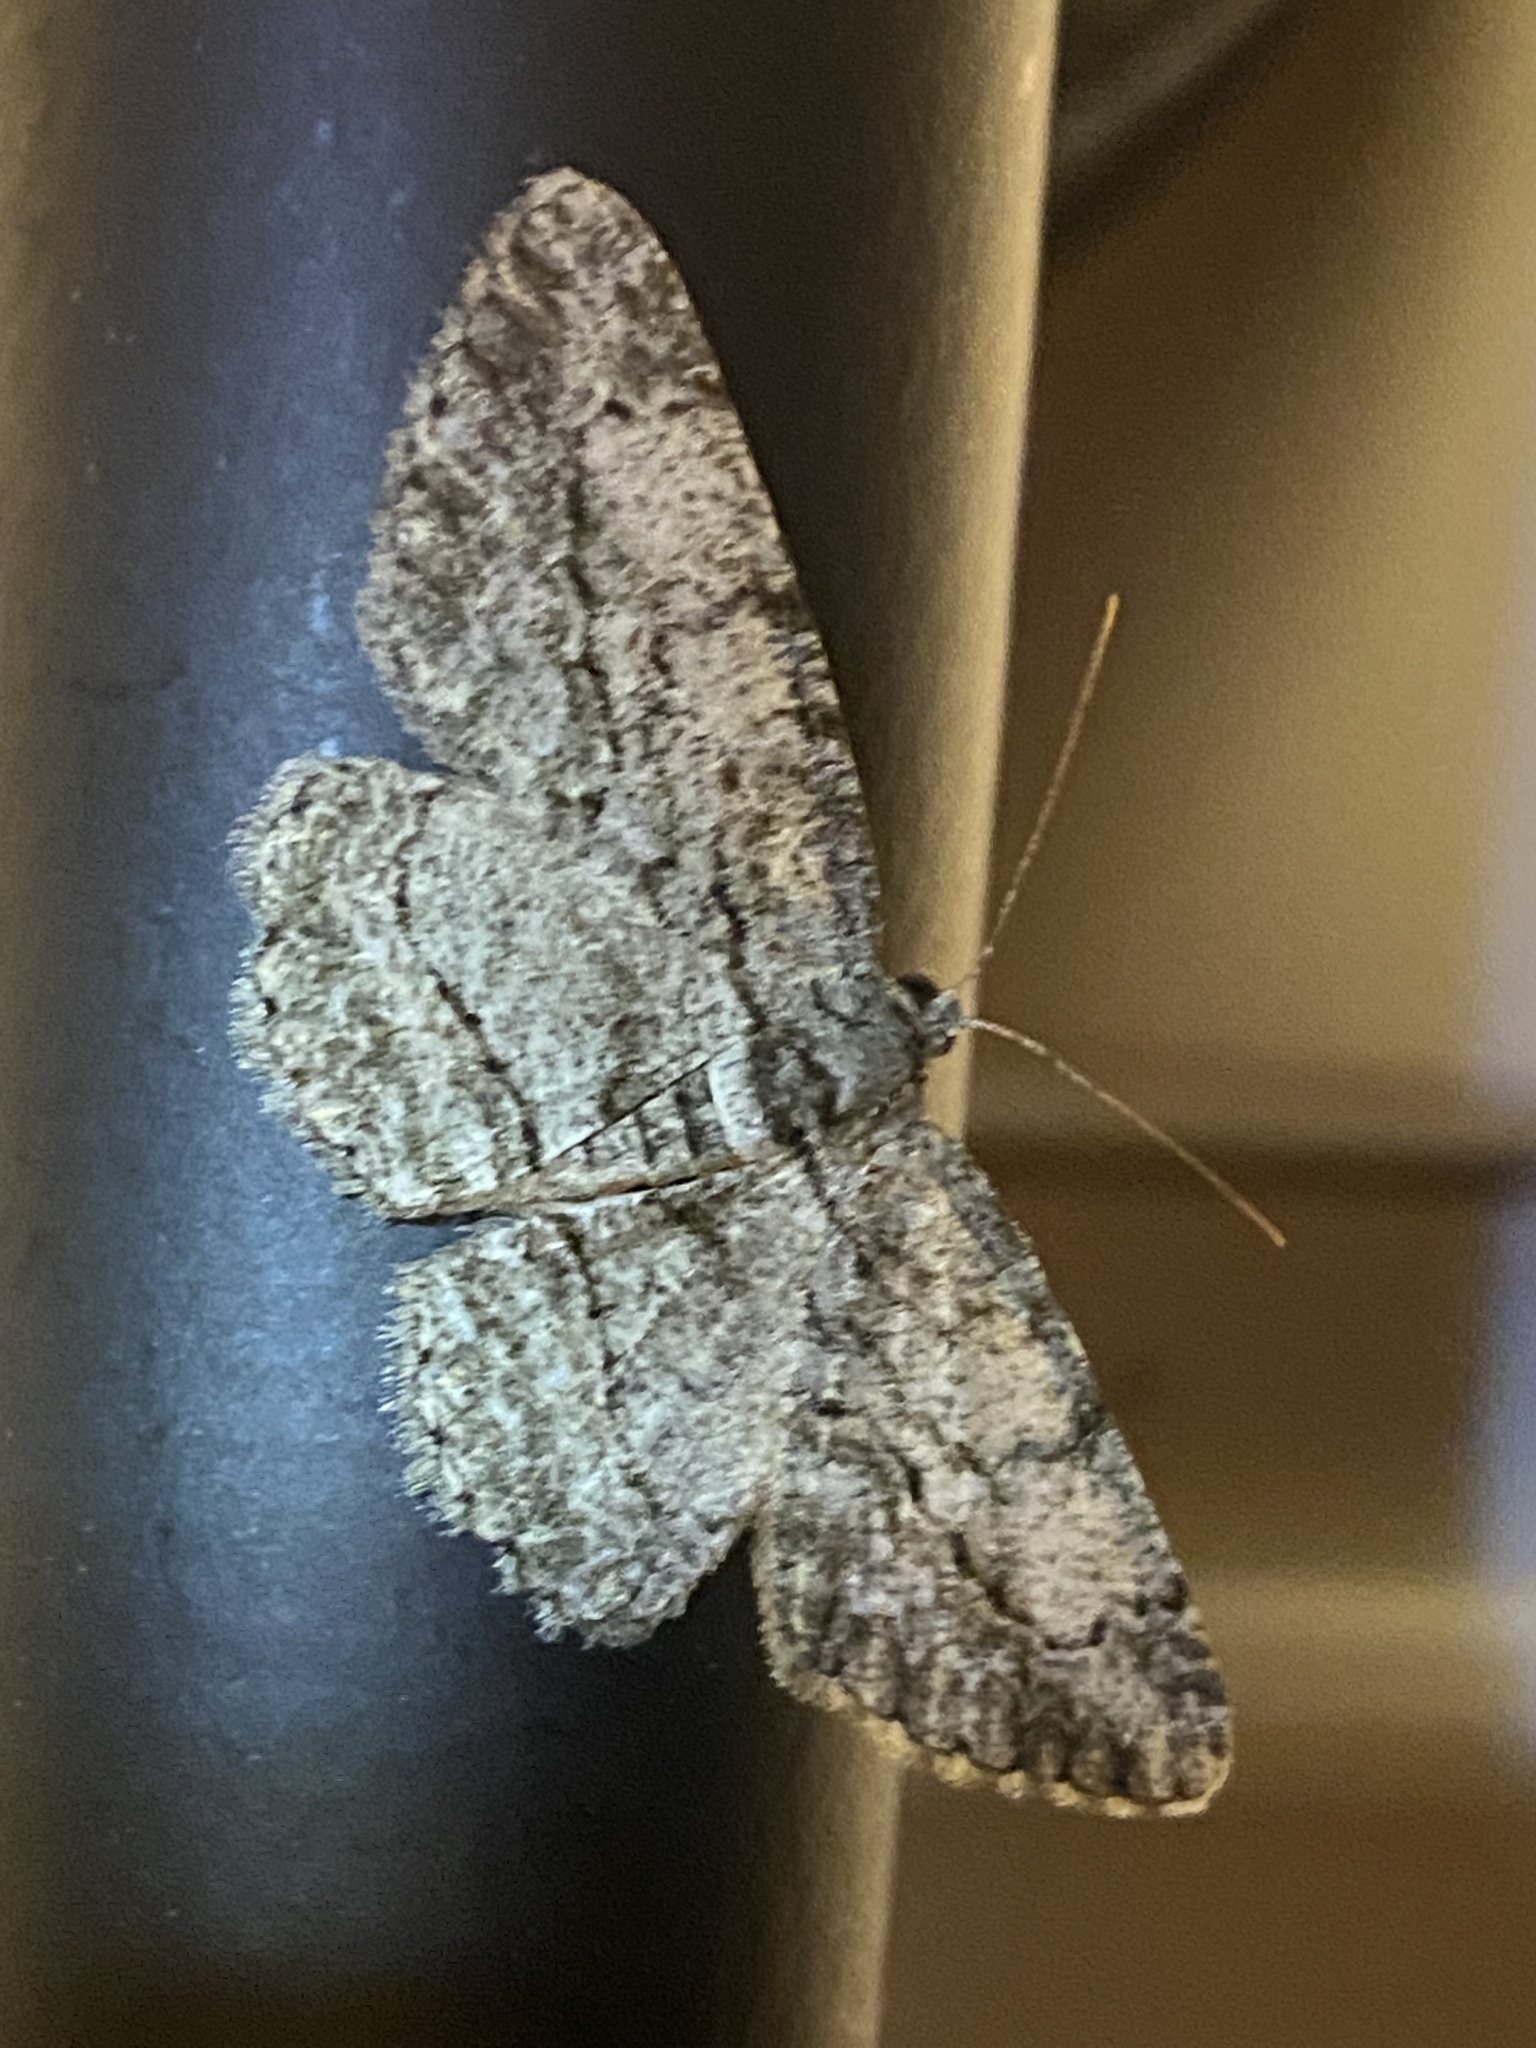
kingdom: Animalia
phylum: Arthropoda
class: Insecta
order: Lepidoptera
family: Geometridae
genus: Anavitrinella
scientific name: Anavitrinella pampinaria
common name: Common gray
